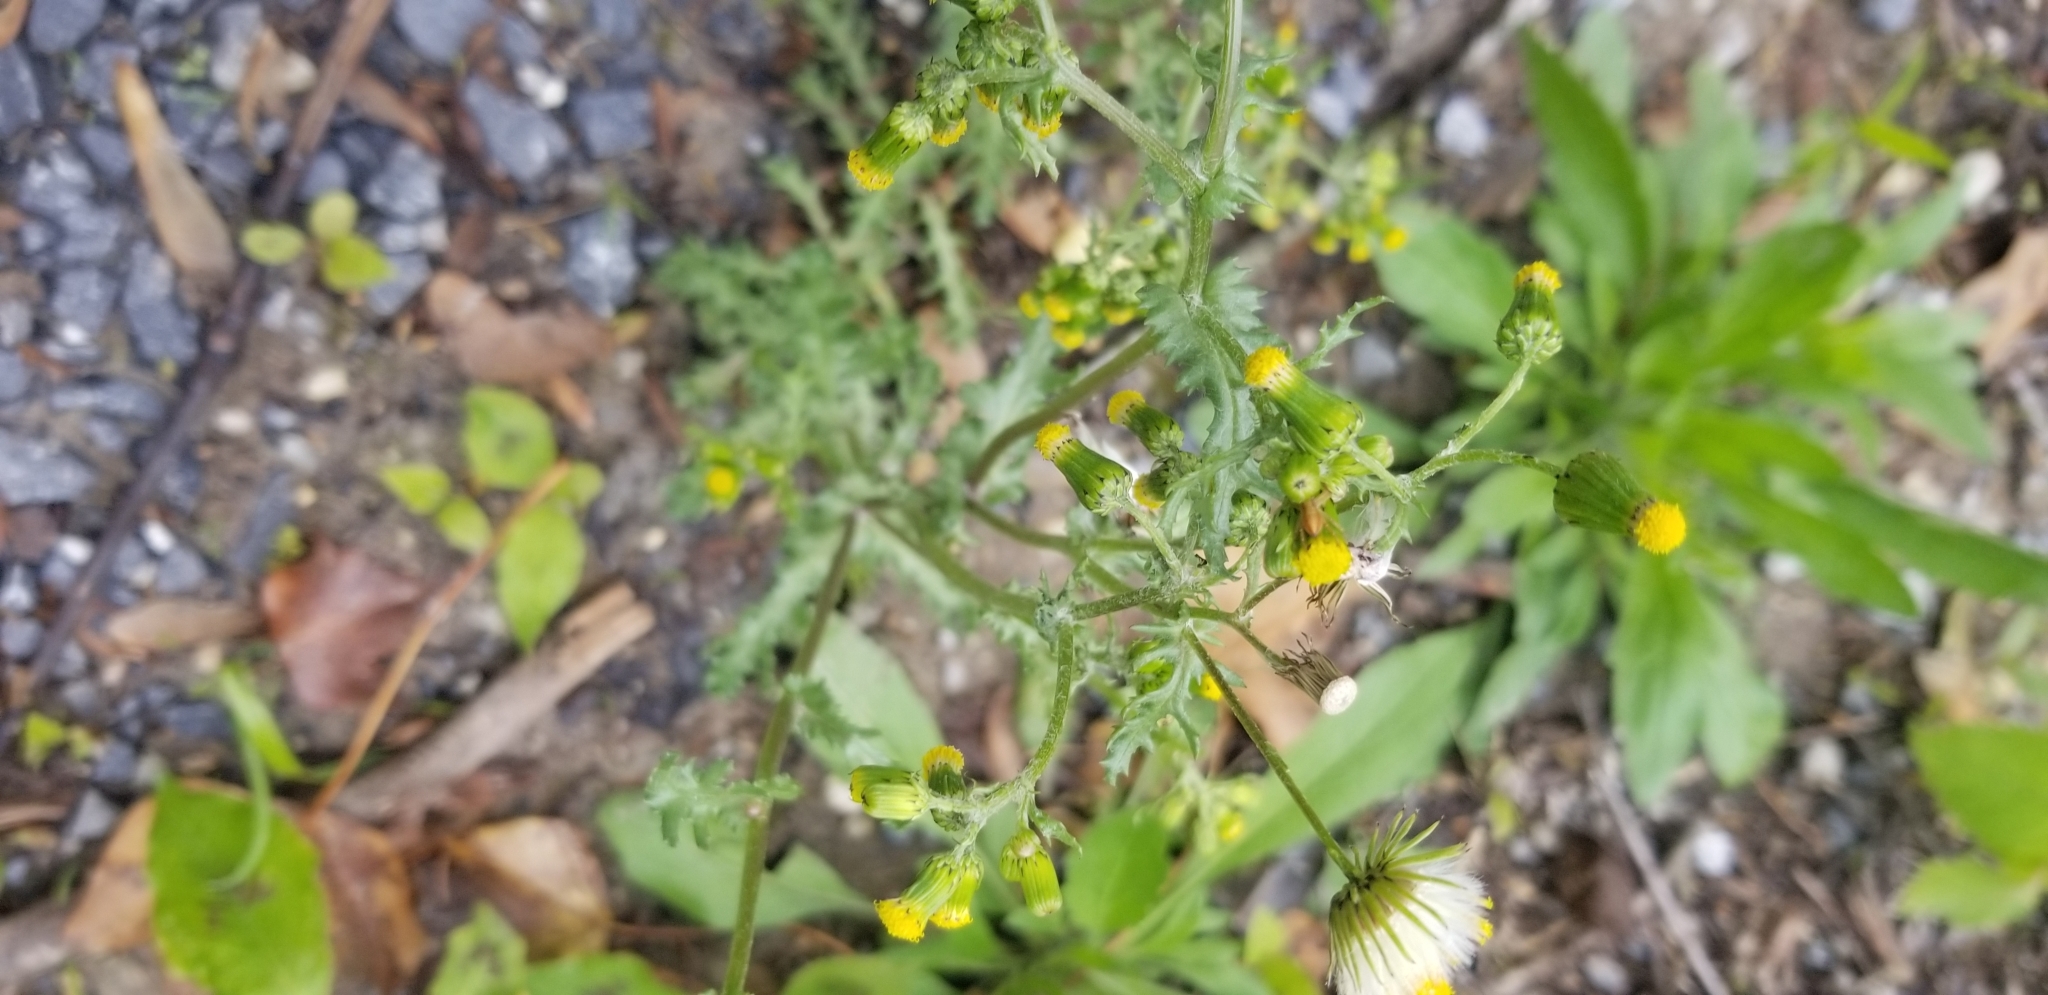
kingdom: Plantae
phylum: Tracheophyta
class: Magnoliopsida
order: Asterales
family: Asteraceae
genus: Senecio
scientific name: Senecio vulgaris
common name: Old-man-in-the-spring
